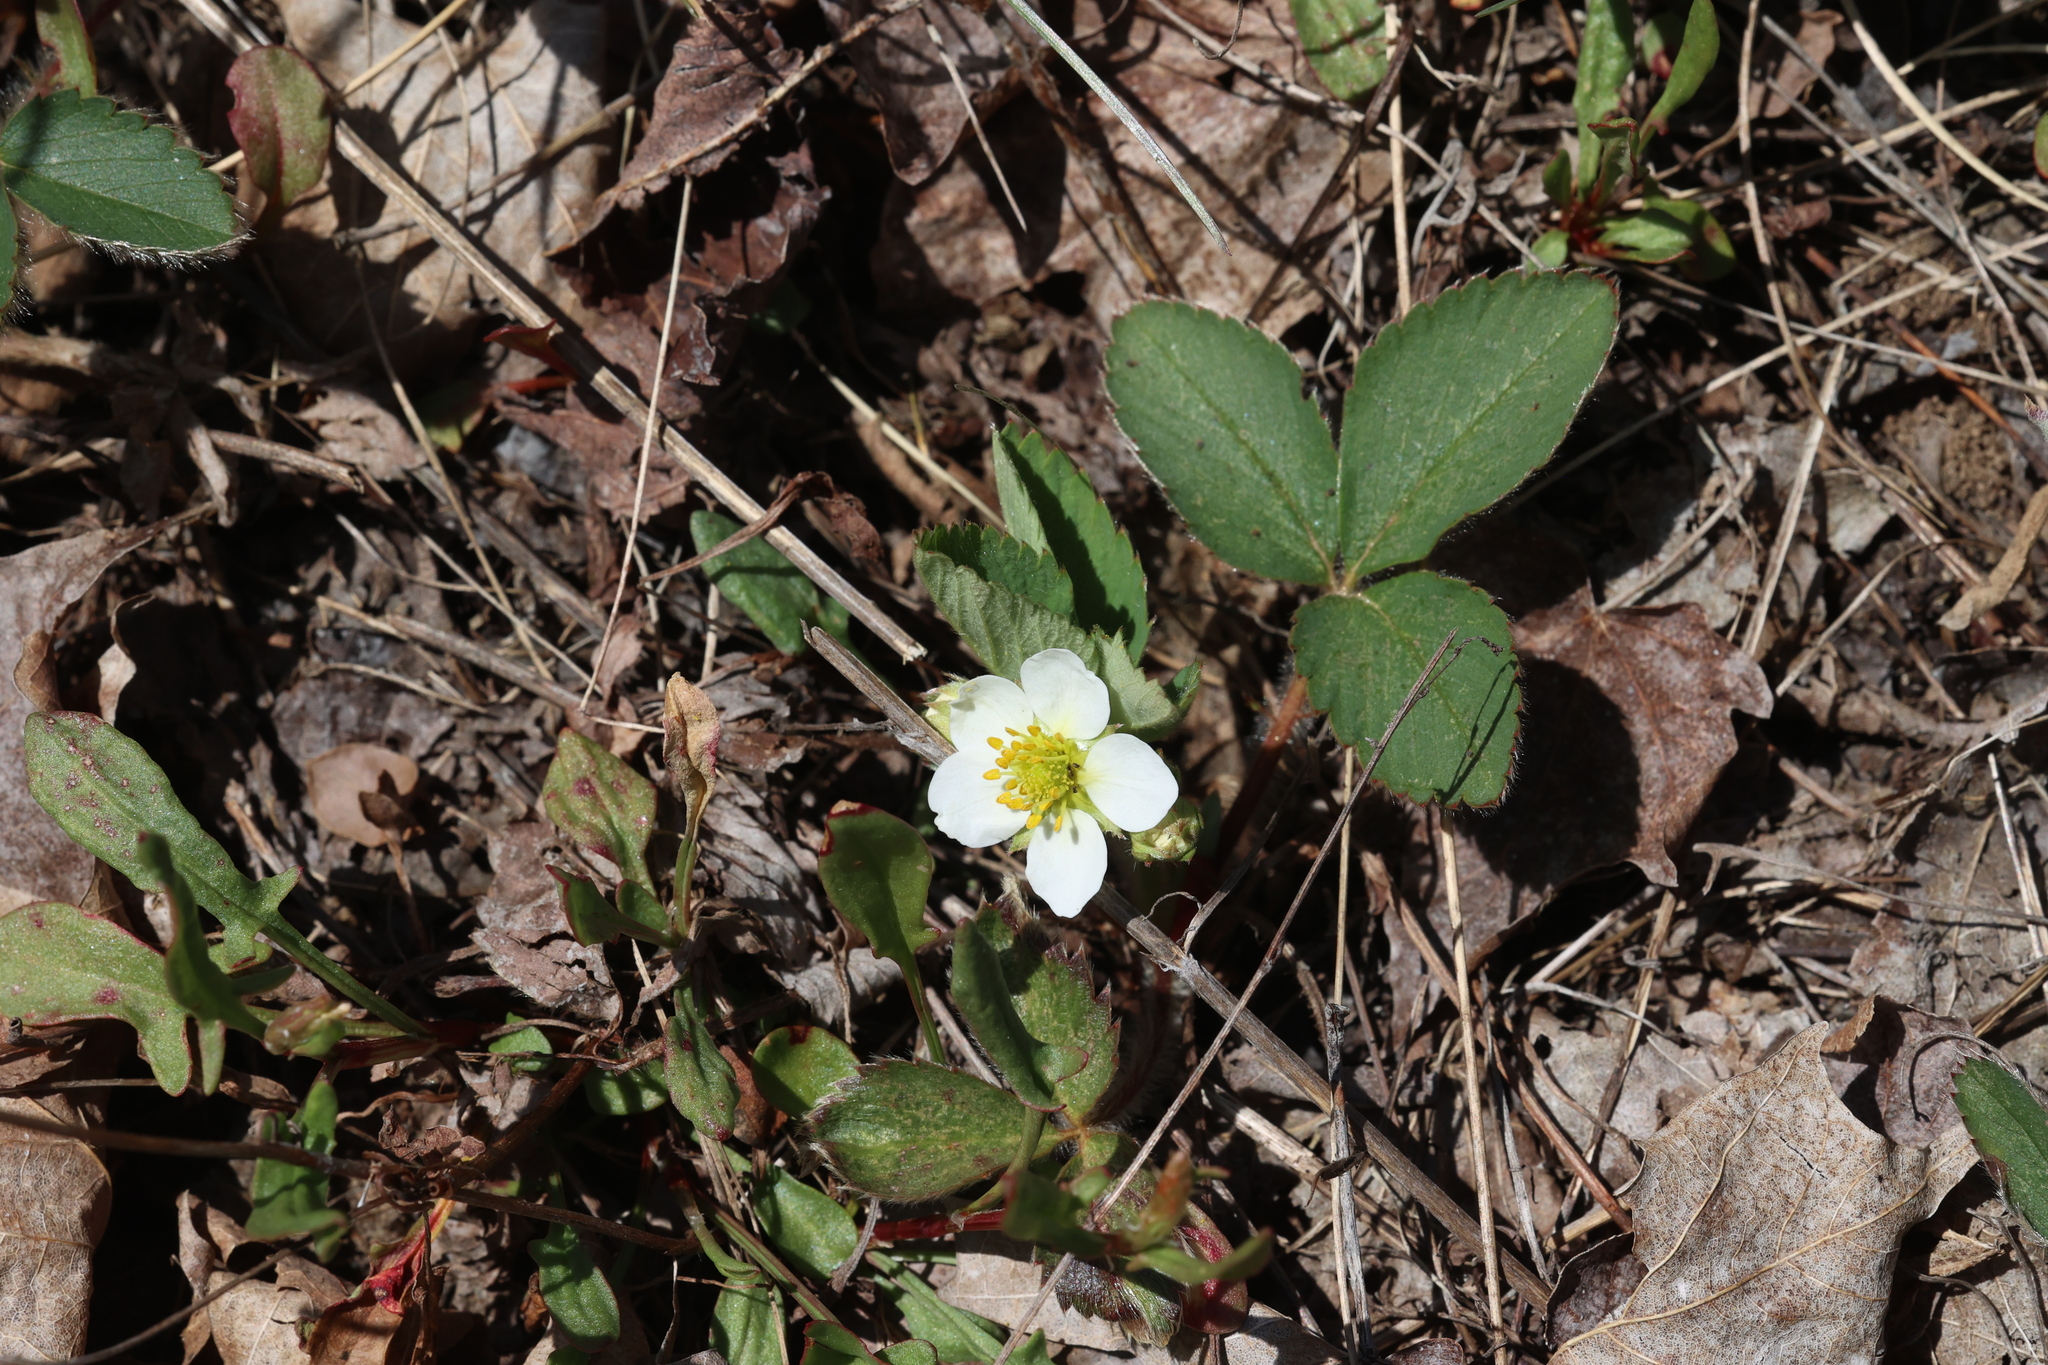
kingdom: Plantae
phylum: Tracheophyta
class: Magnoliopsida
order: Rosales
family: Rosaceae
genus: Fragaria
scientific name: Fragaria virginiana
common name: Thickleaved wild strawberry
